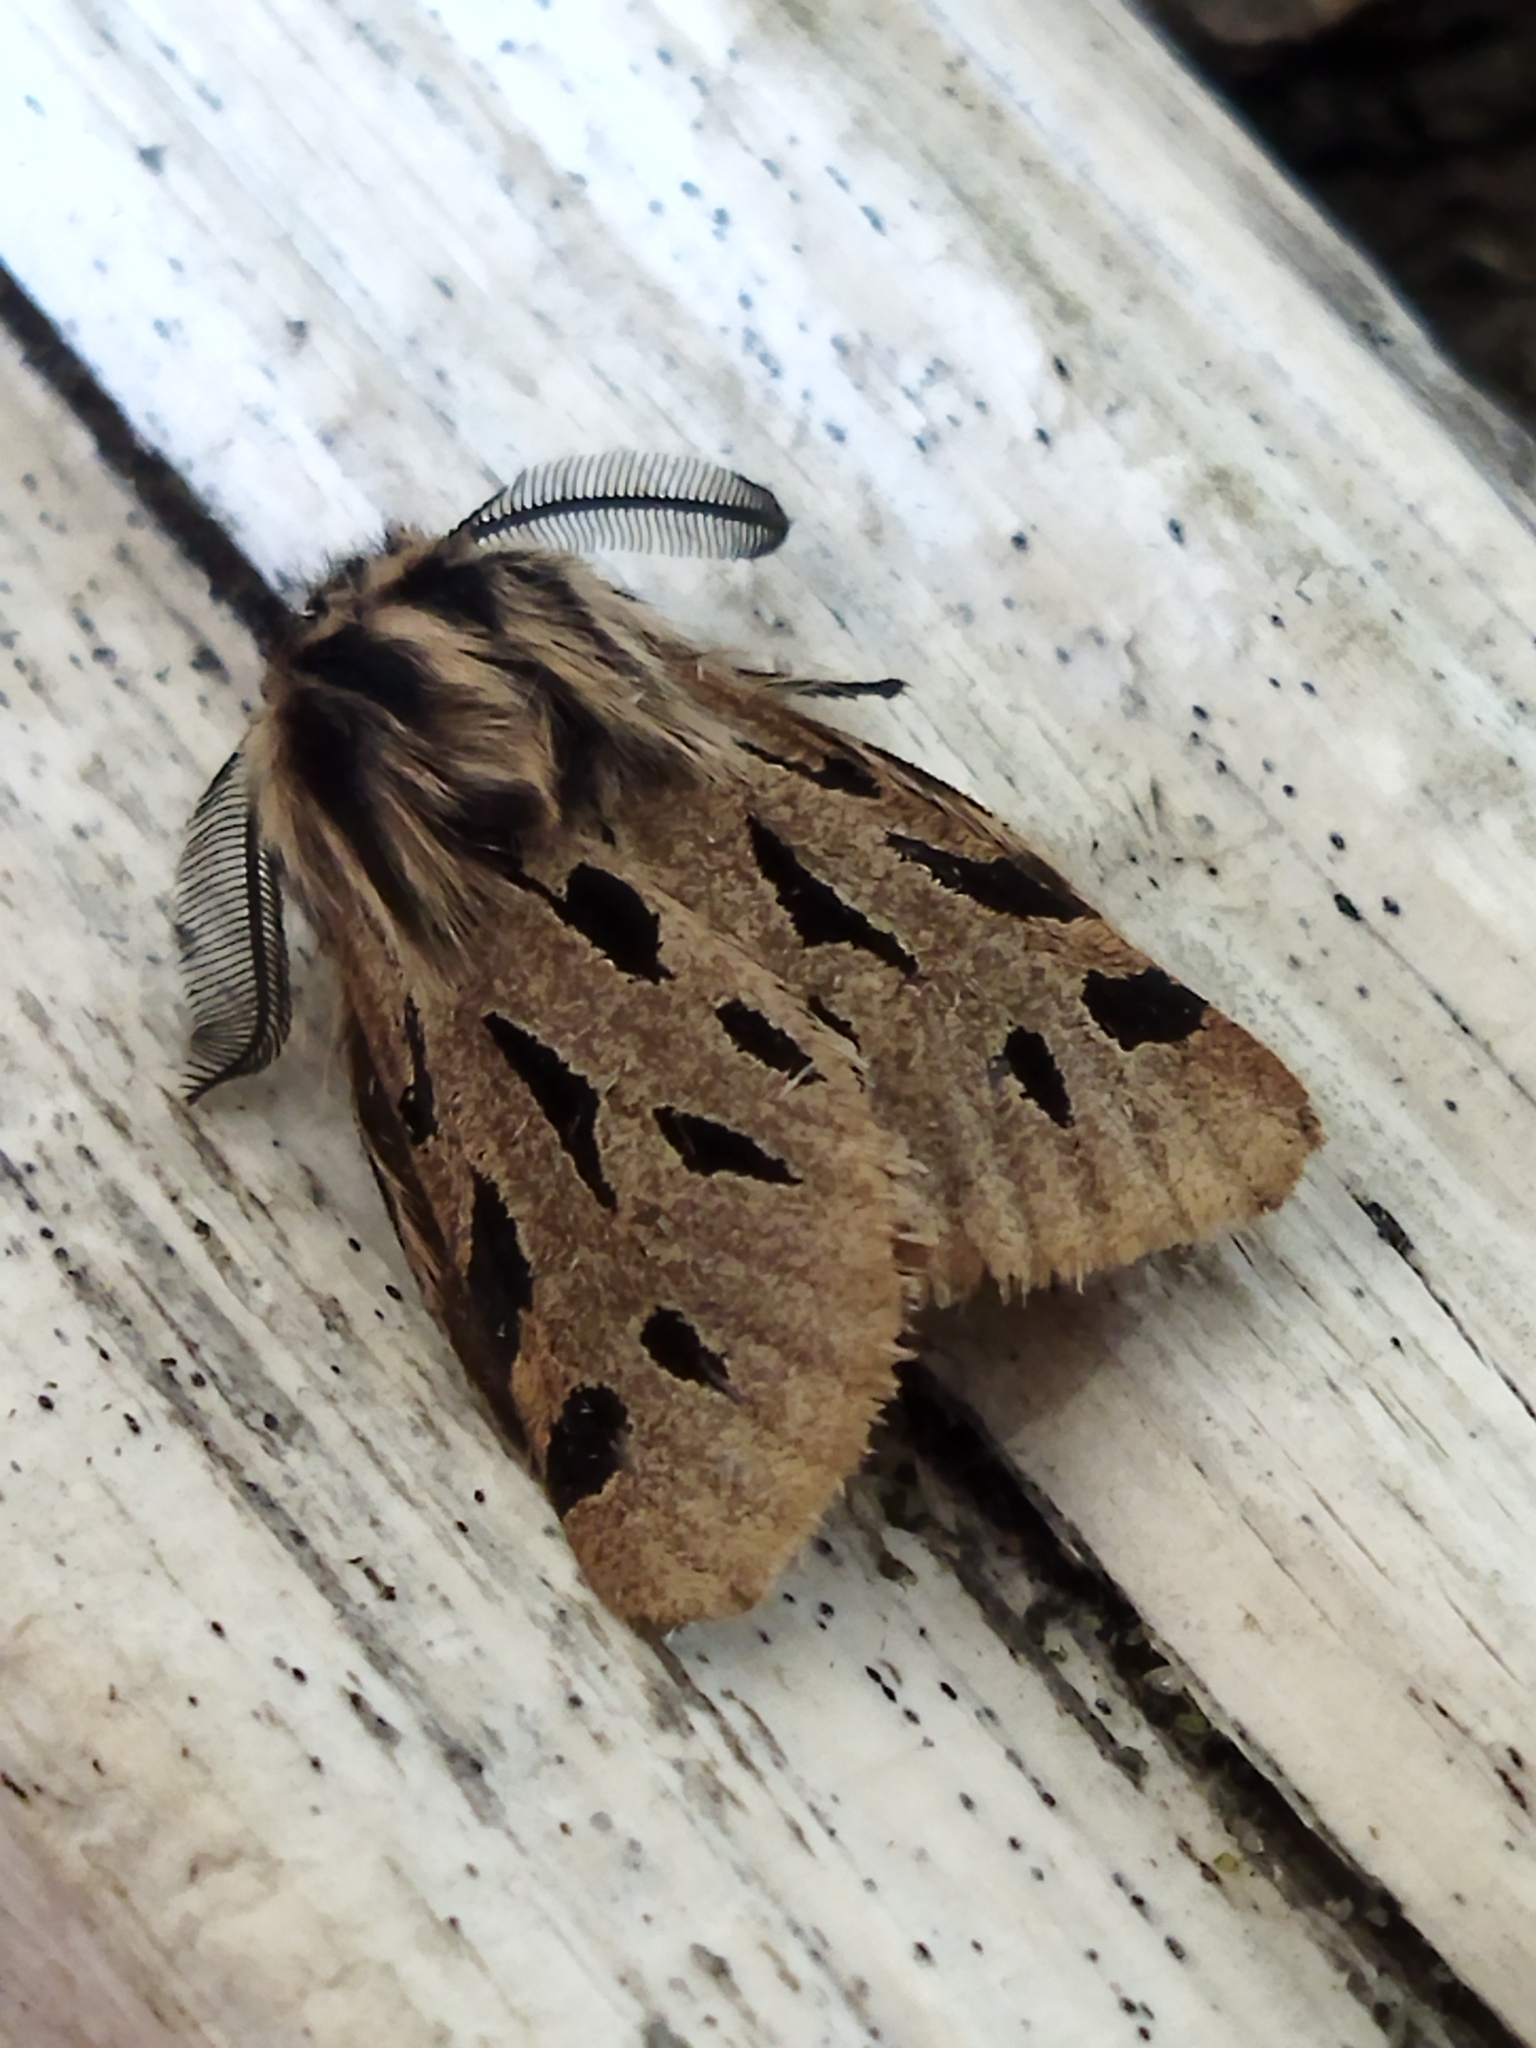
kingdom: Animalia
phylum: Arthropoda
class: Insecta
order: Lepidoptera
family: Erebidae
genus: Ocnogyna
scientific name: Ocnogyna parasita
